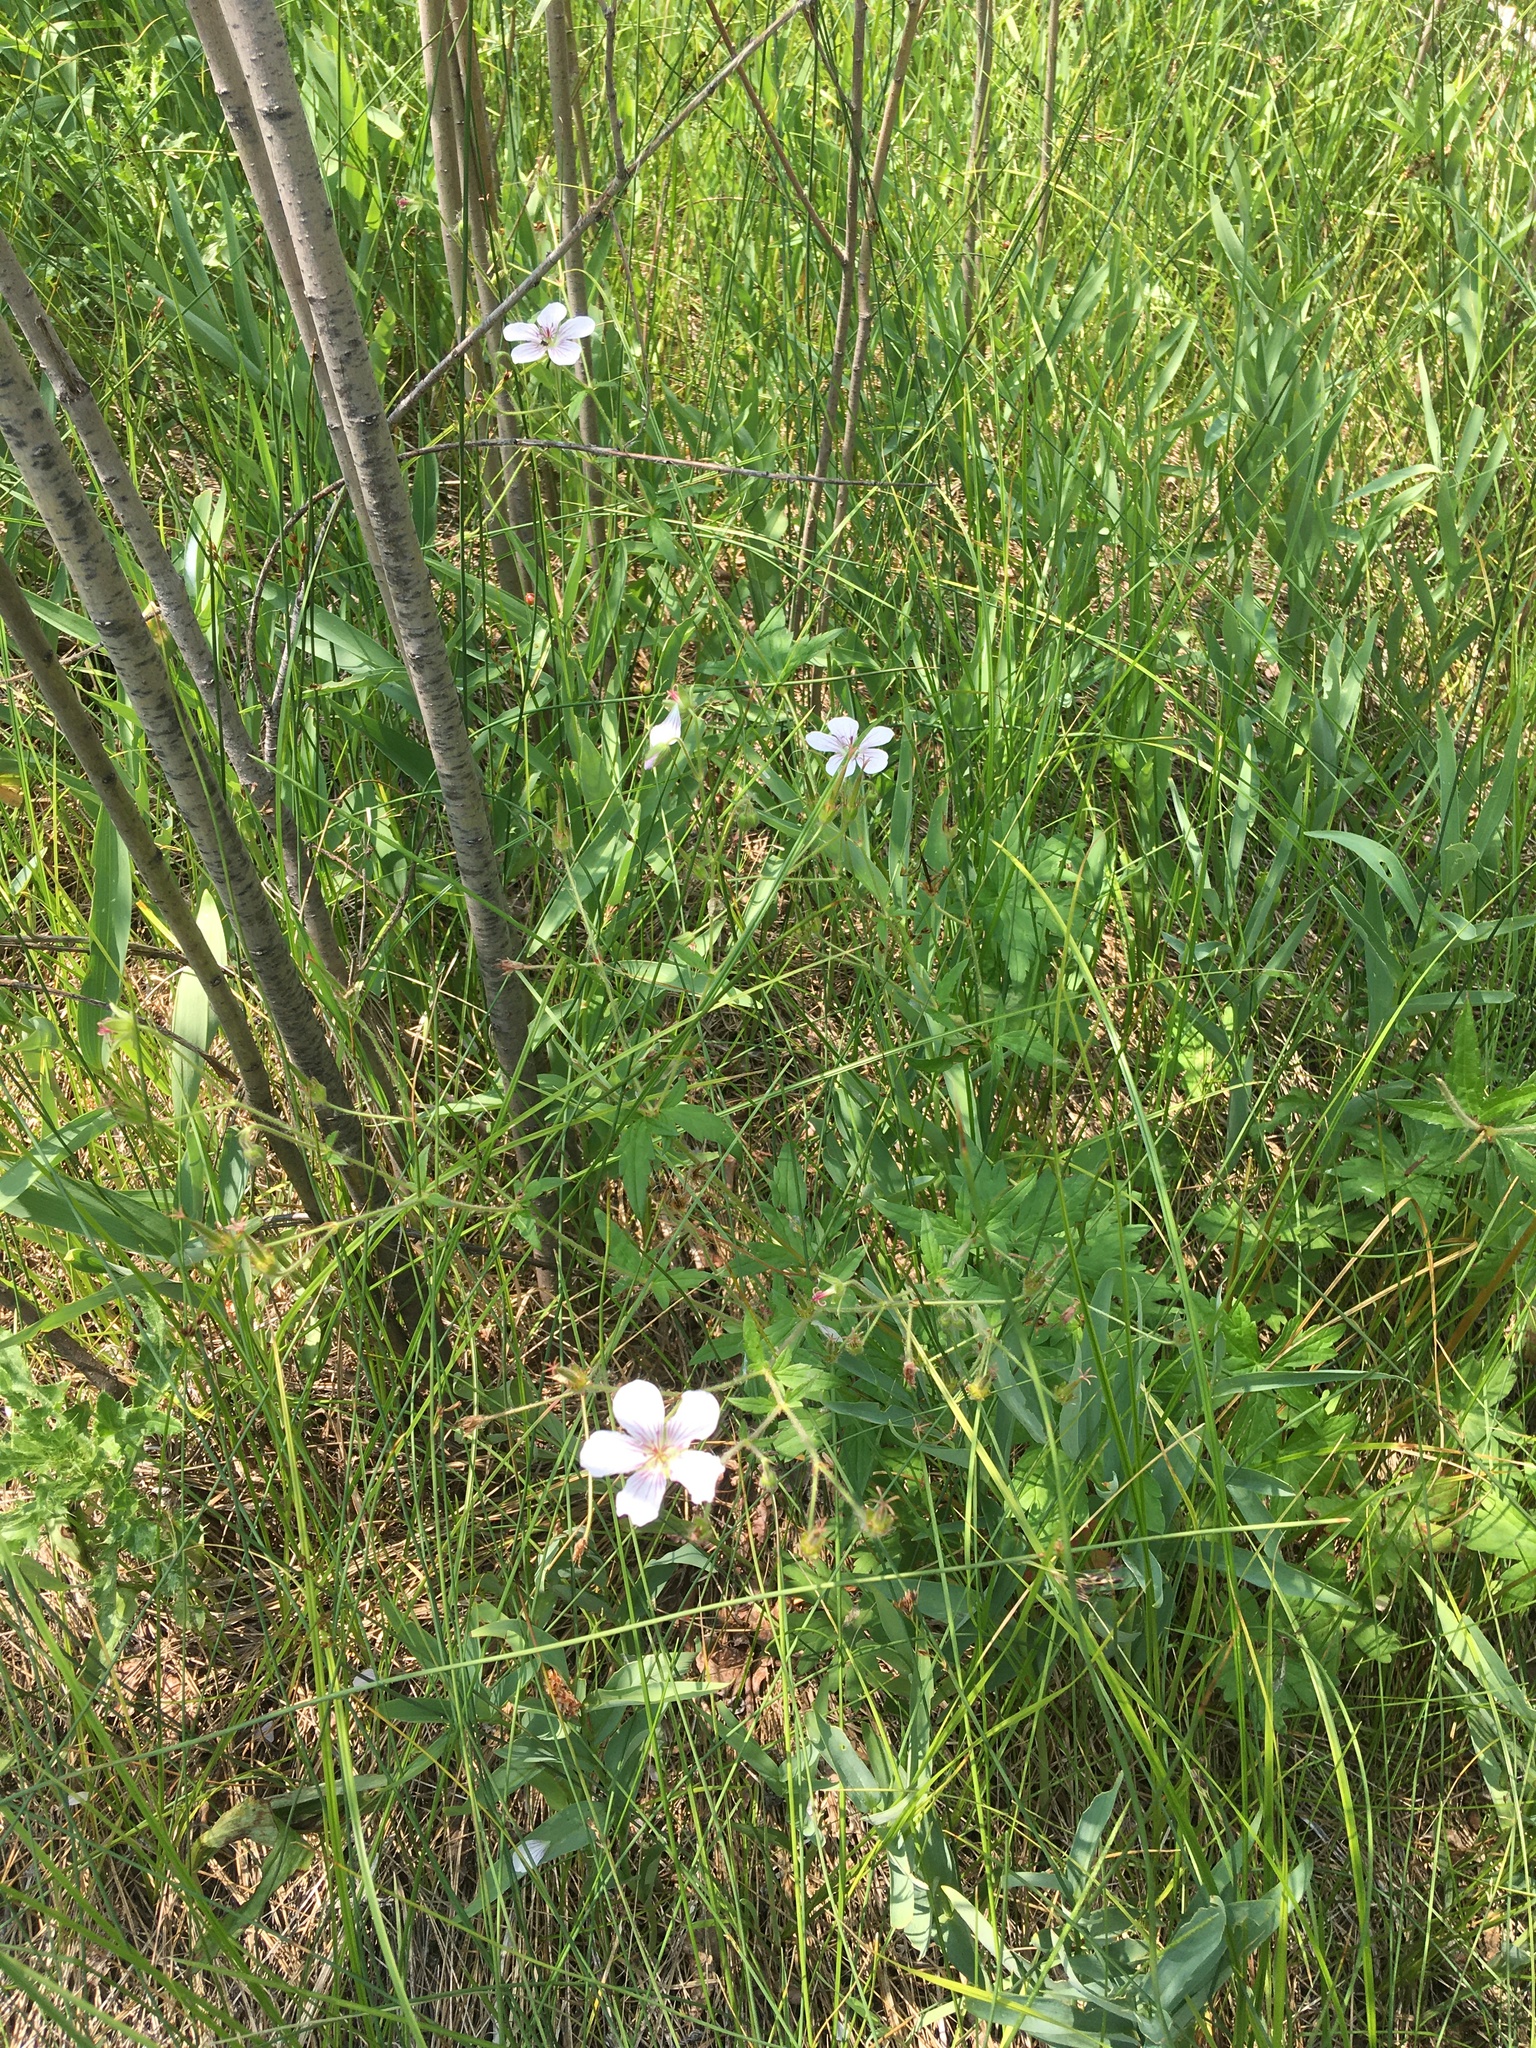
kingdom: Plantae
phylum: Tracheophyta
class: Magnoliopsida
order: Geraniales
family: Geraniaceae
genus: Geranium
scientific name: Geranium richardsonii
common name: Richardson's crane's-bill
